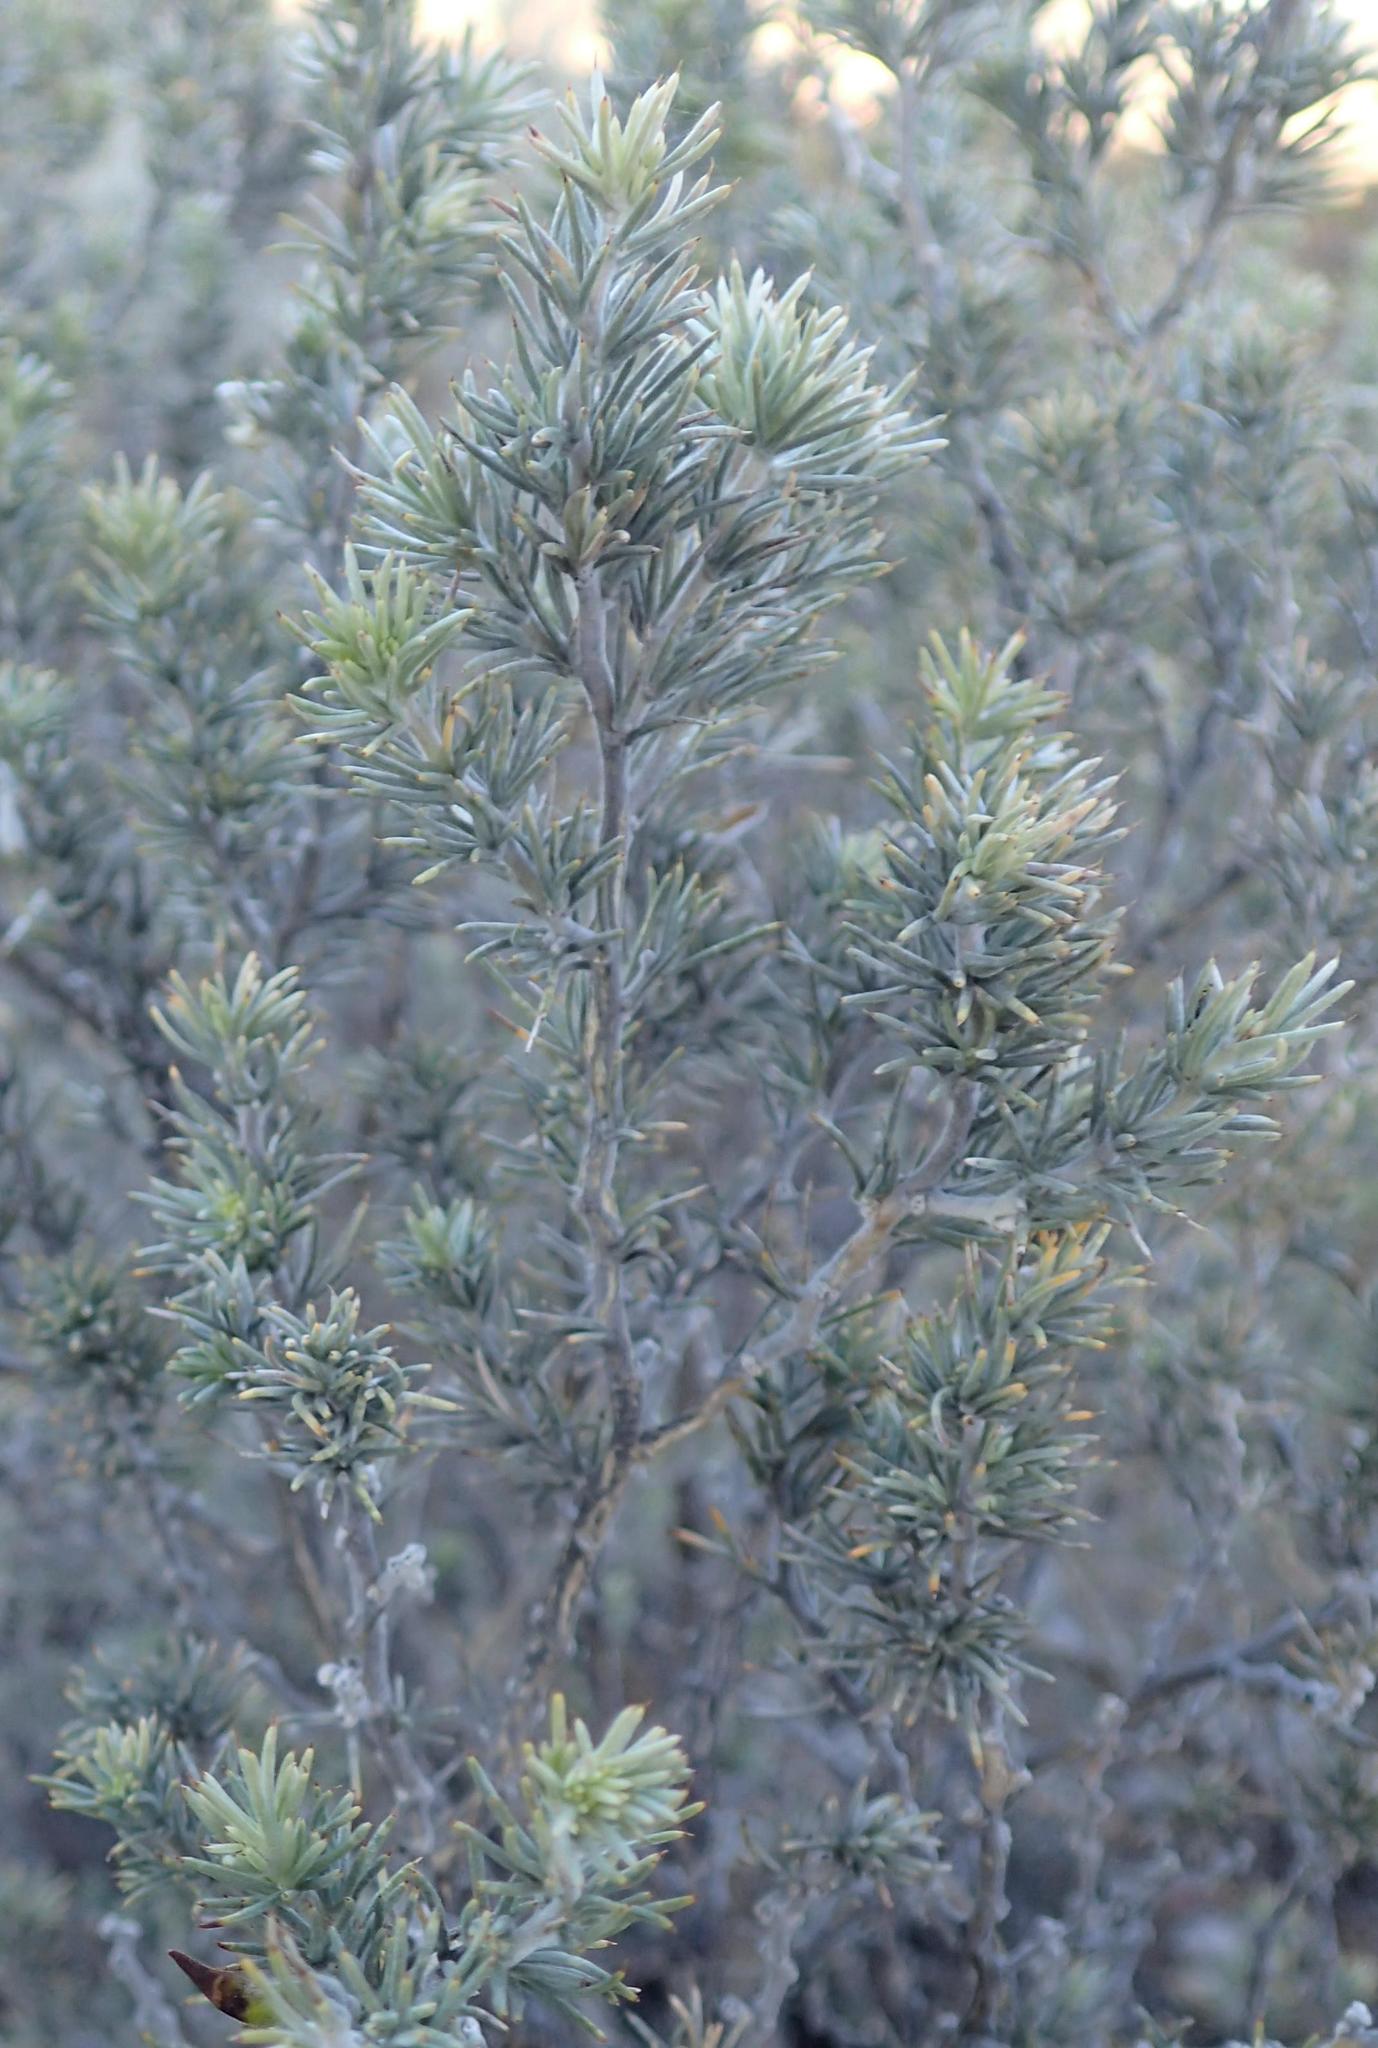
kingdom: Plantae
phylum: Tracheophyta
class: Magnoliopsida
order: Fabales
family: Fabaceae
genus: Aspalathus
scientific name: Aspalathus hystrix
